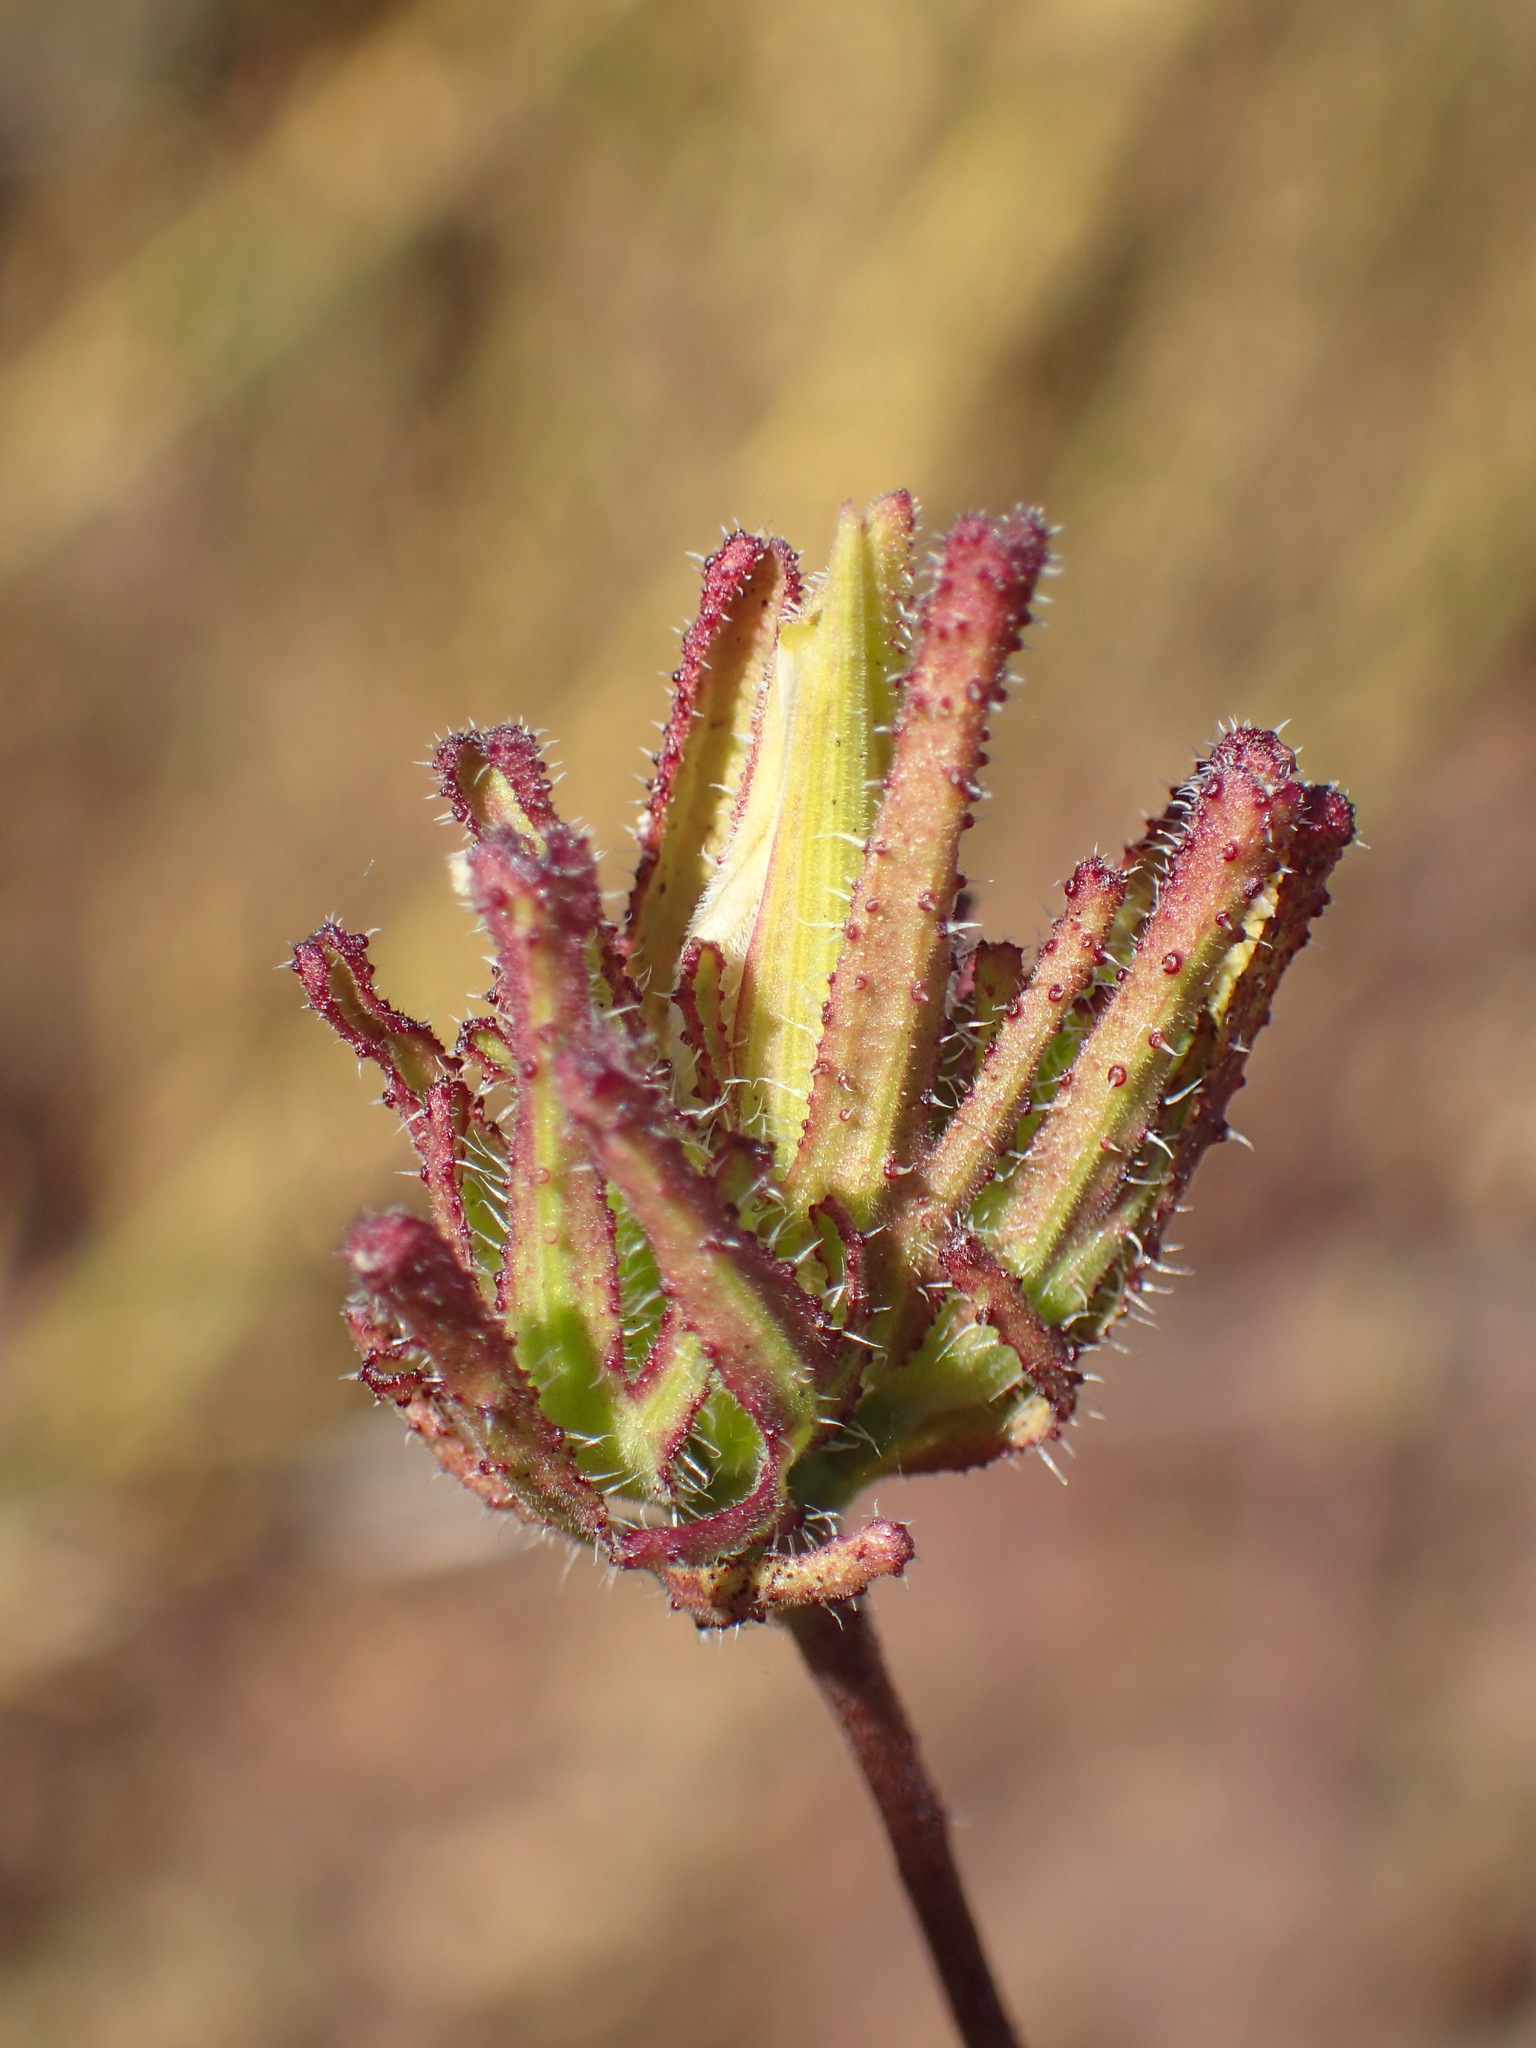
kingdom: Plantae
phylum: Tracheophyta
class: Magnoliopsida
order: Lamiales
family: Orobanchaceae
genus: Cordylanthus
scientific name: Cordylanthus rigidus
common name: Stiff-branch bird's-beak
